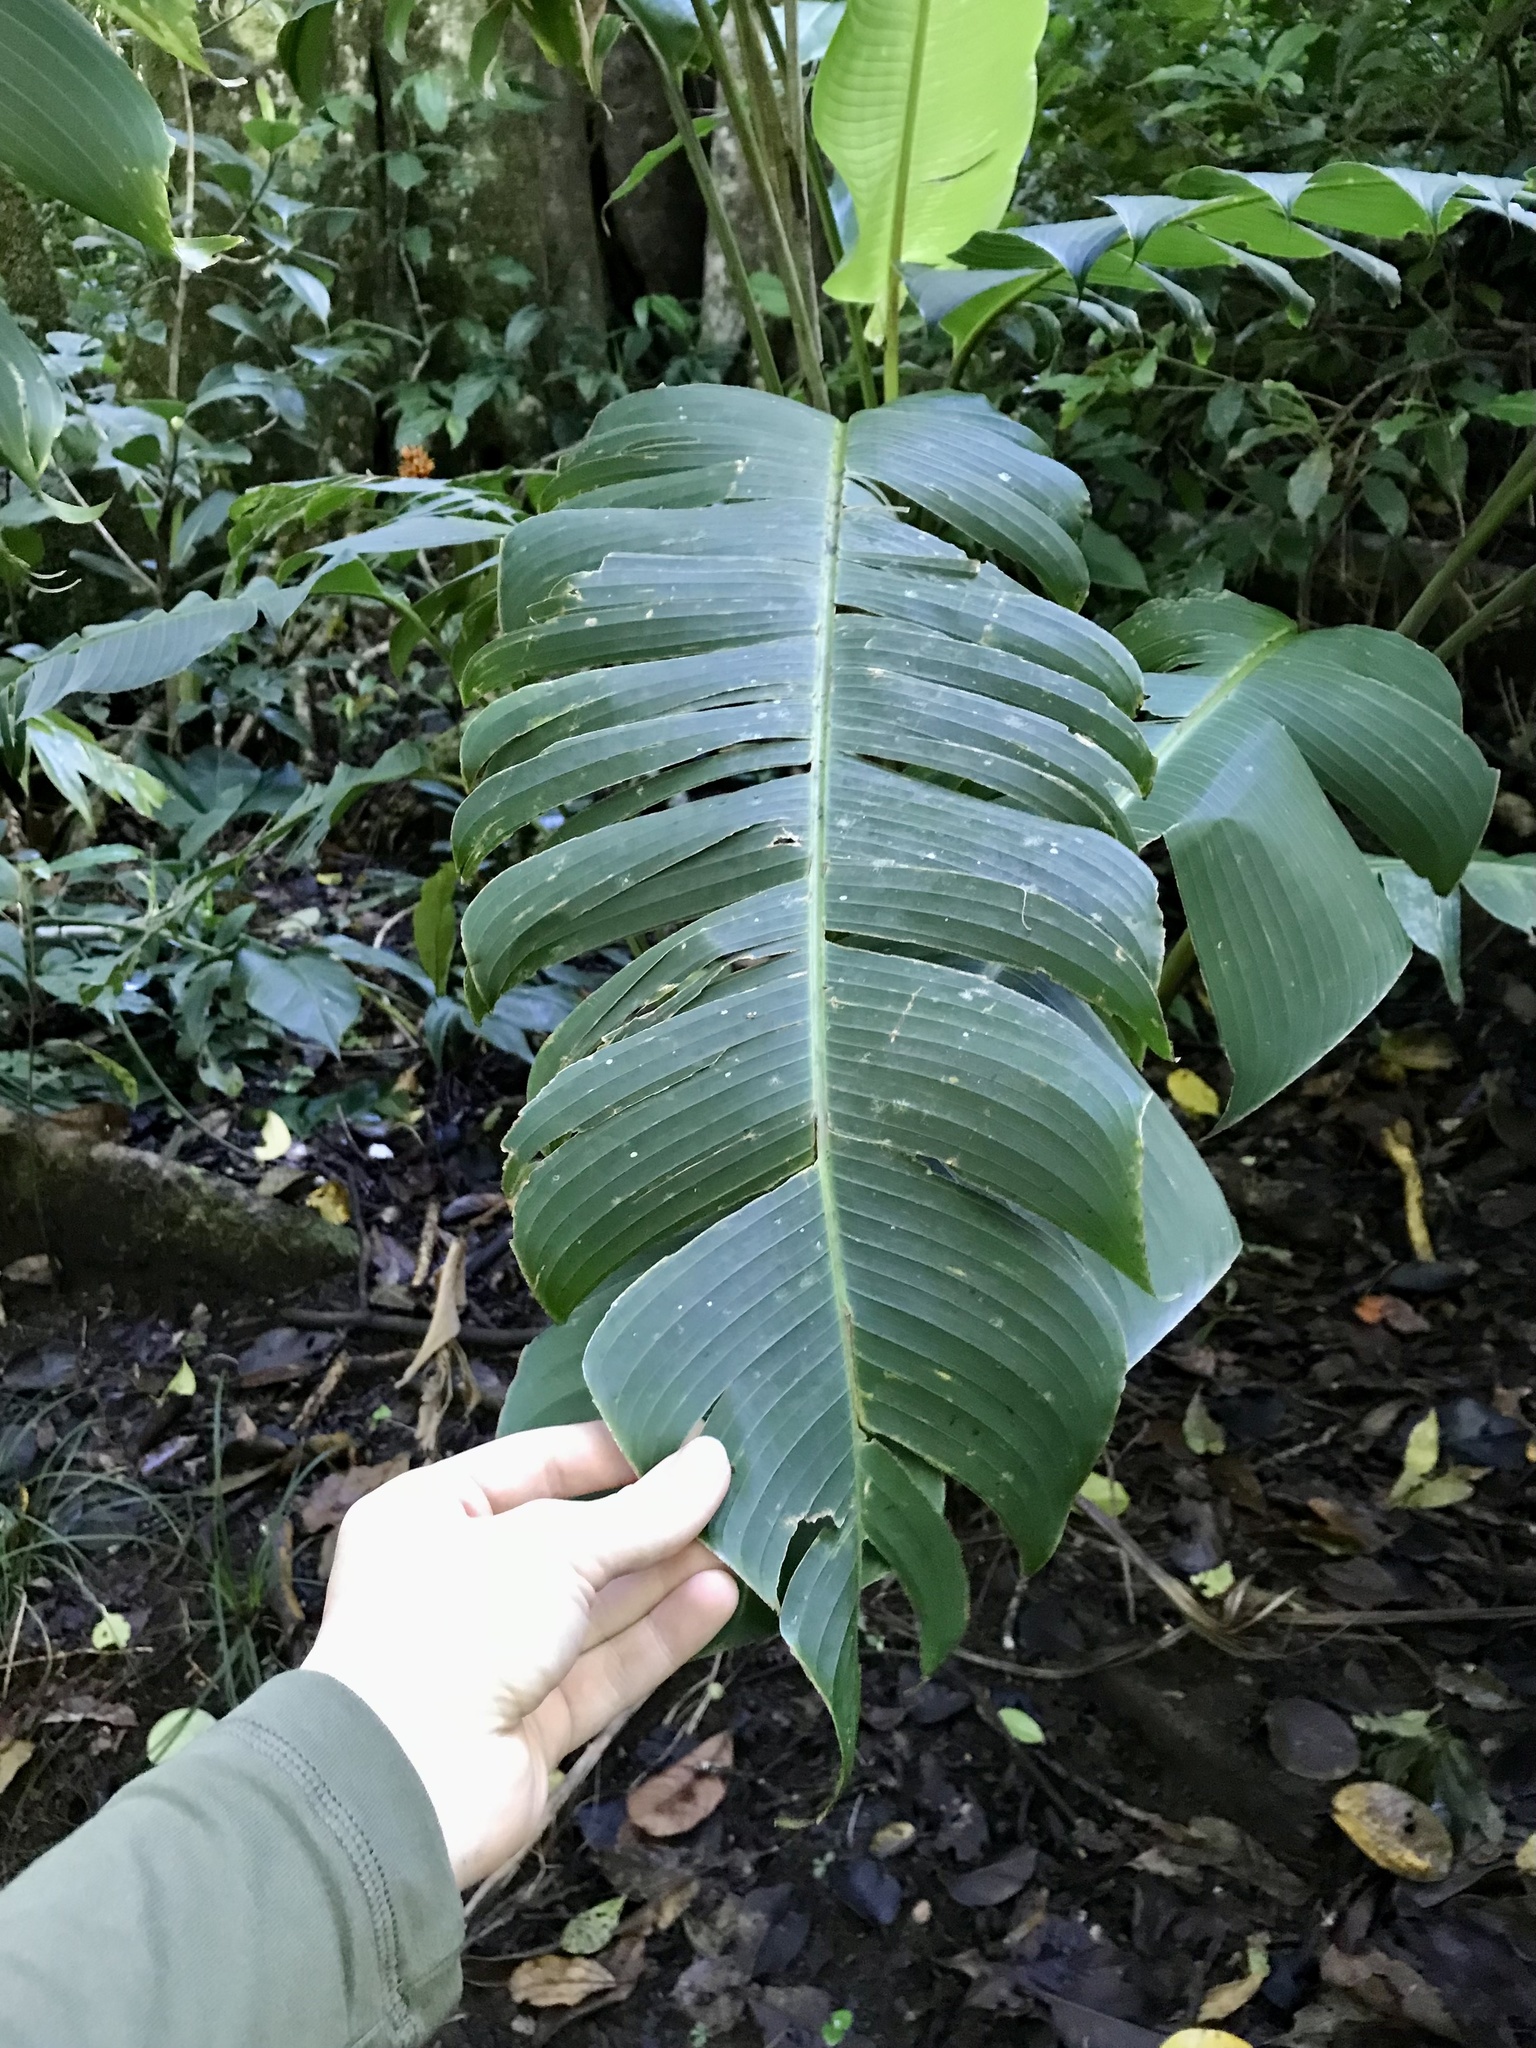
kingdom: Plantae
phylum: Tracheophyta
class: Liliopsida
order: Zingiberales
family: Heliconiaceae
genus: Heliconia
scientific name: Heliconia tortuosa
